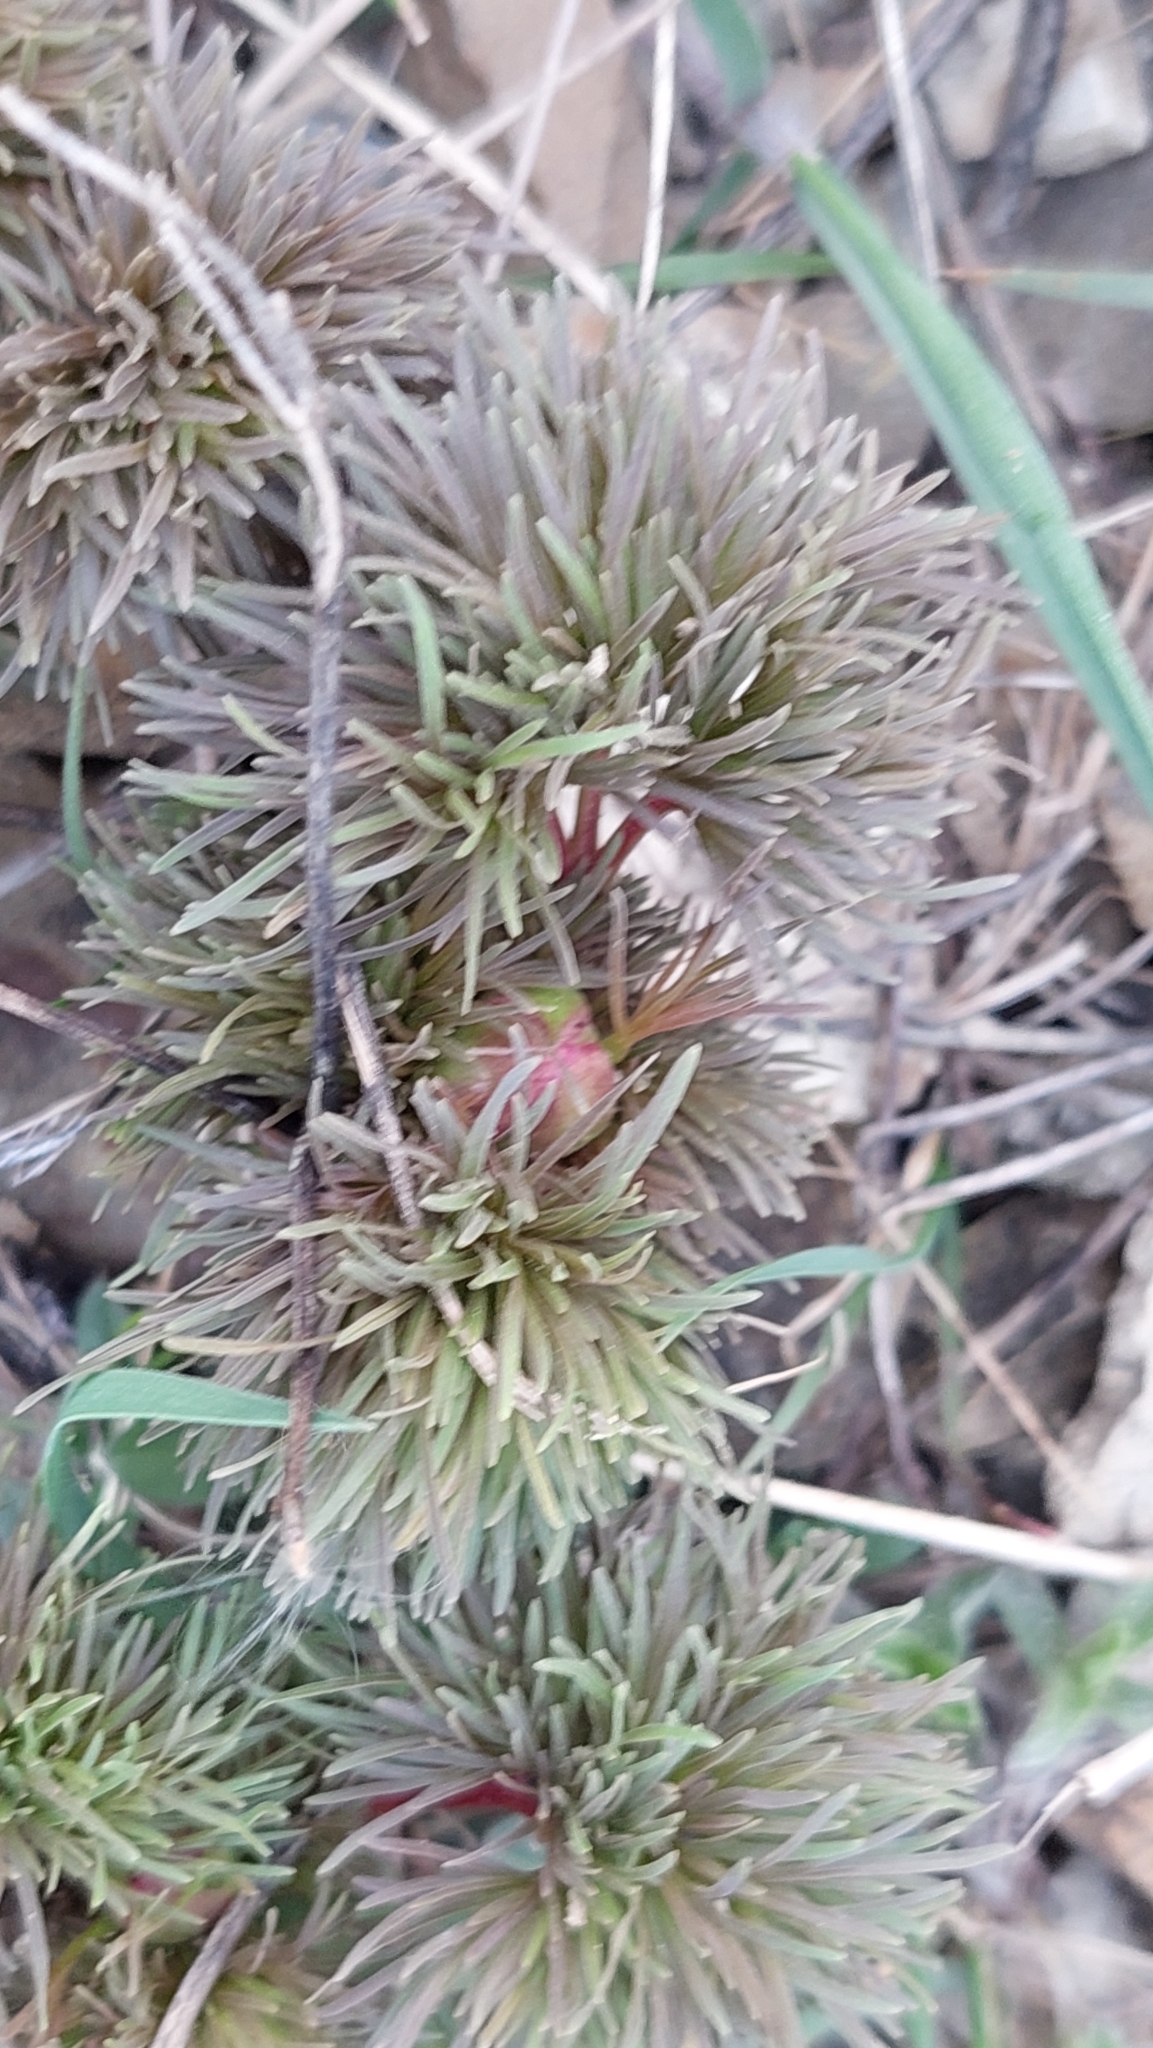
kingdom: Plantae
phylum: Tracheophyta
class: Magnoliopsida
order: Saxifragales
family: Paeoniaceae
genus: Paeonia
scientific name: Paeonia tenuifolia
